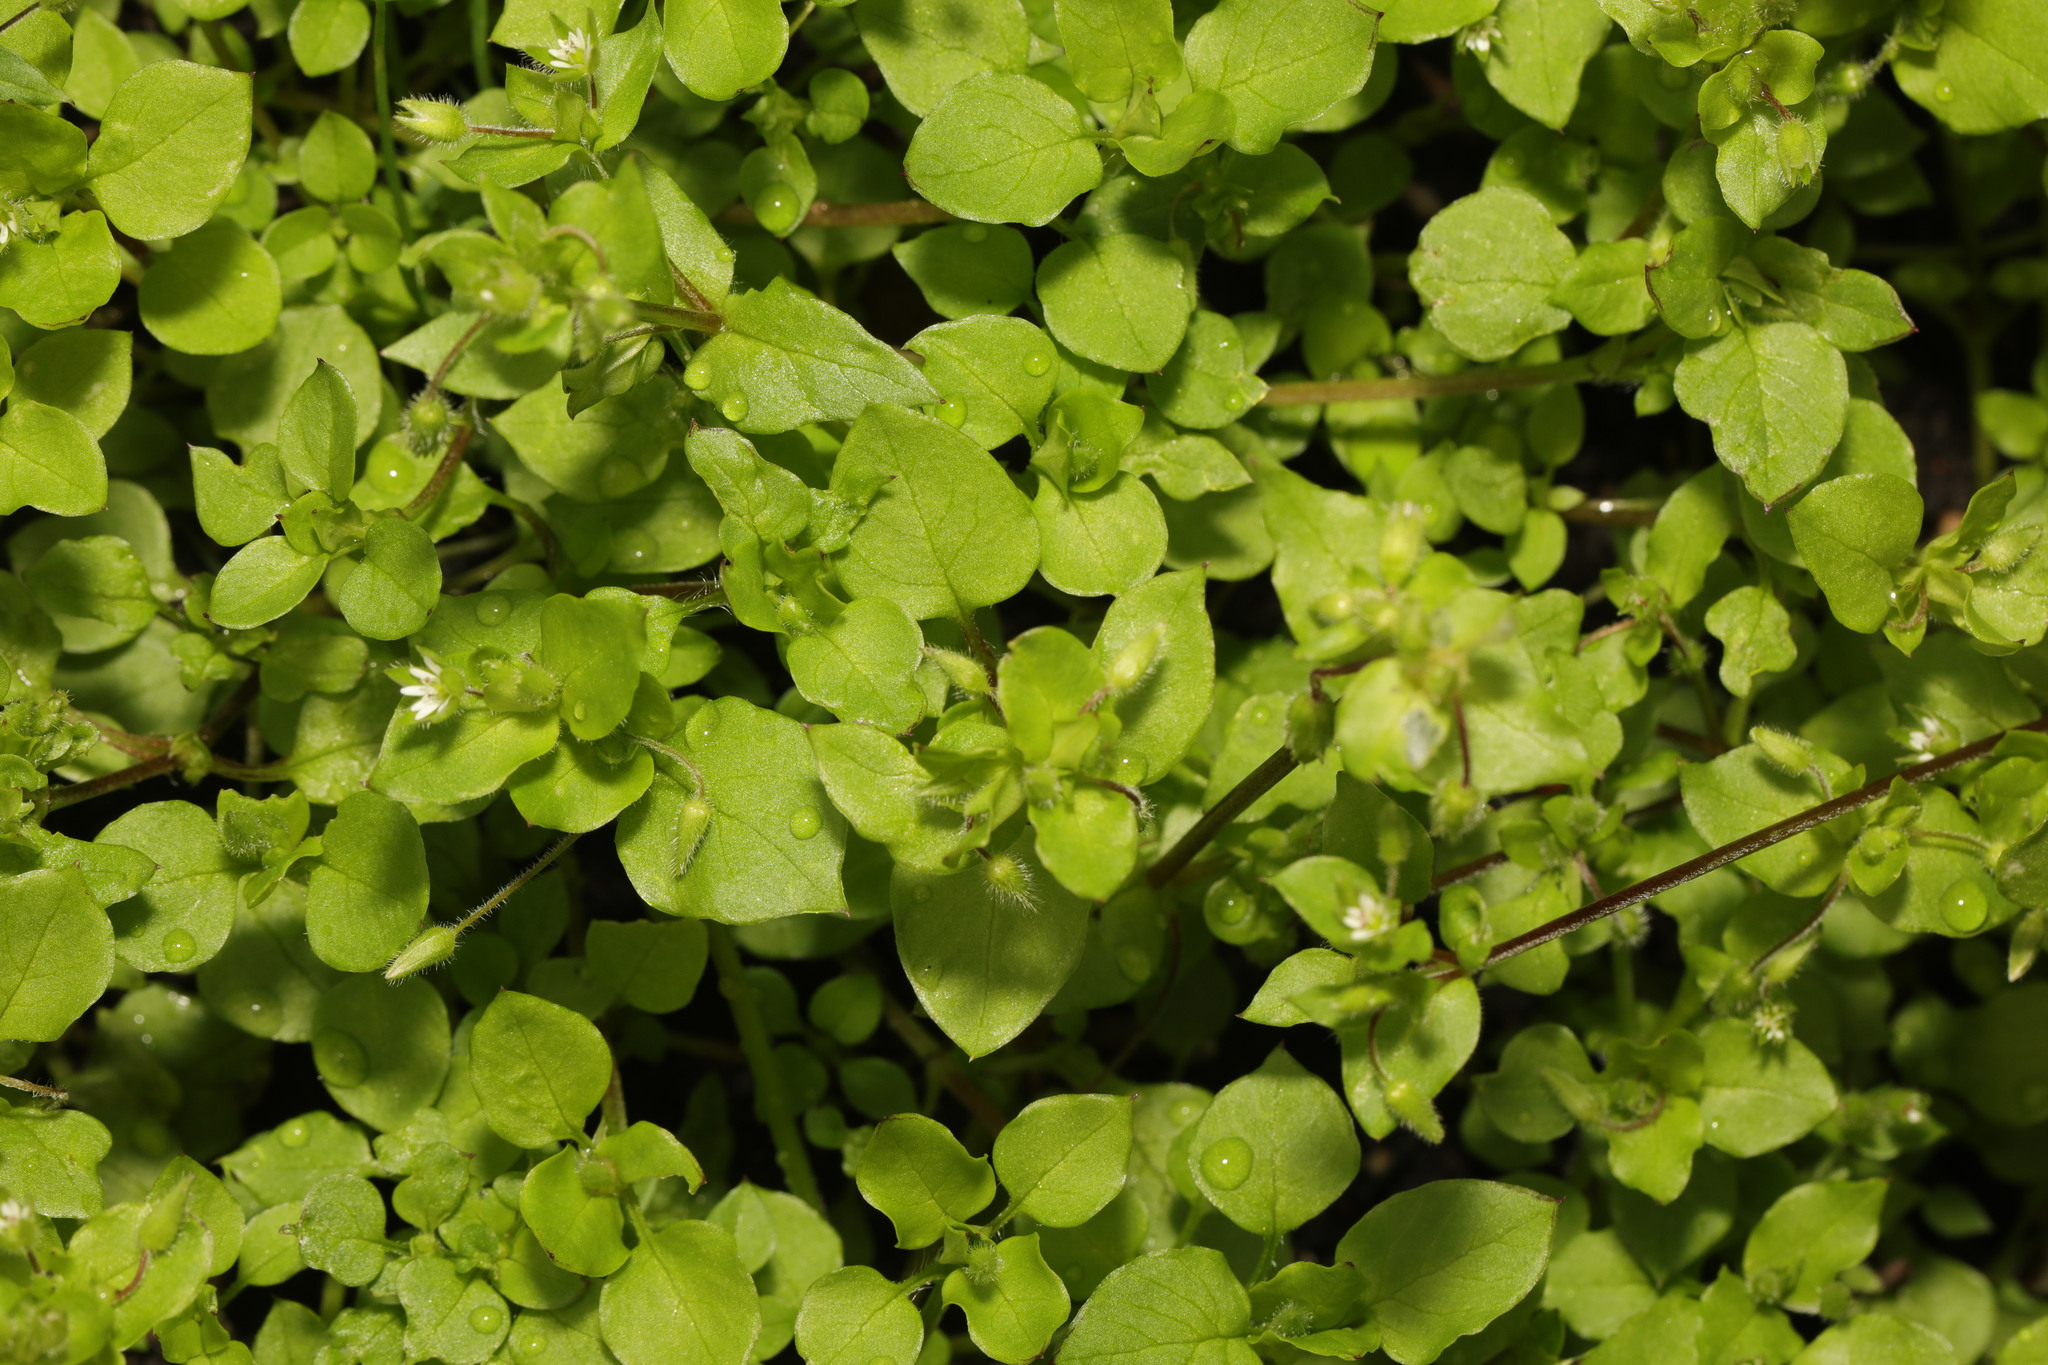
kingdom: Plantae
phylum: Tracheophyta
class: Magnoliopsida
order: Caryophyllales
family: Caryophyllaceae
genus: Stellaria
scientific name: Stellaria media
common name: Common chickweed
